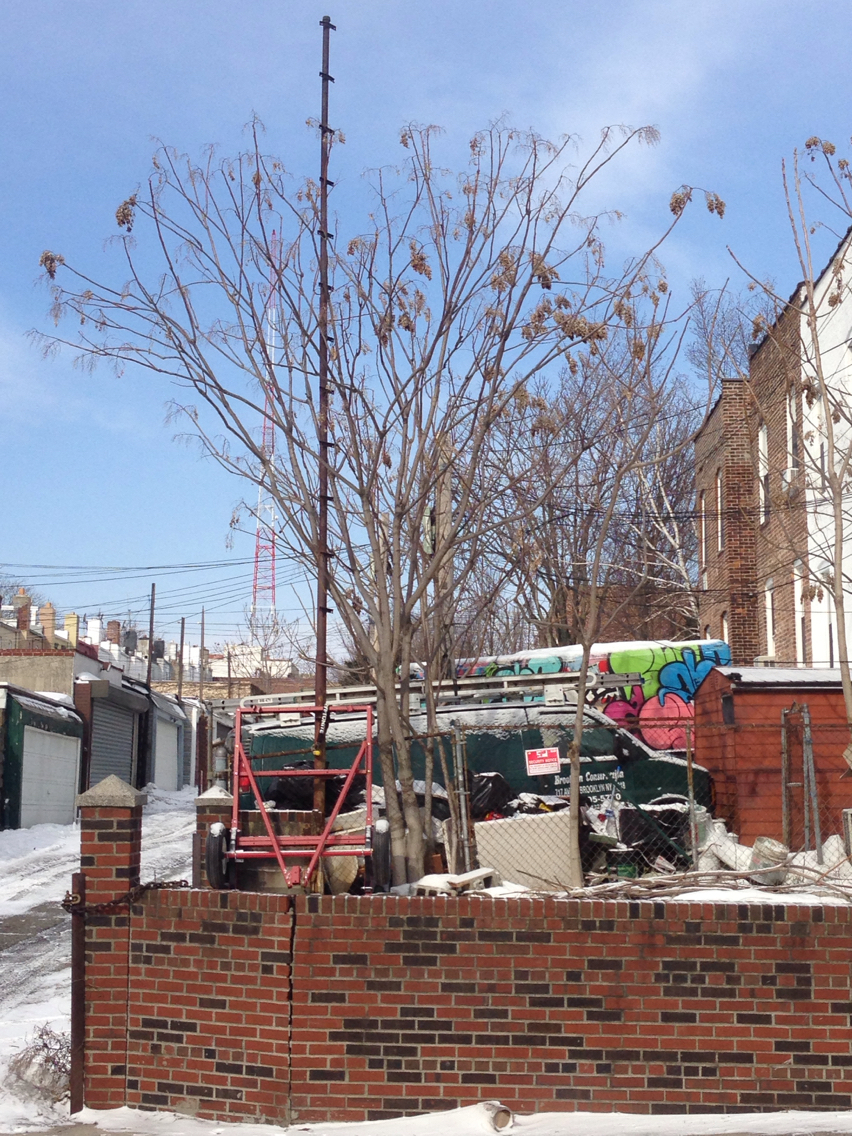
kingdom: Plantae
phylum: Tracheophyta
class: Magnoliopsida
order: Sapindales
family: Simaroubaceae
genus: Ailanthus
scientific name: Ailanthus altissima
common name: Tree-of-heaven
